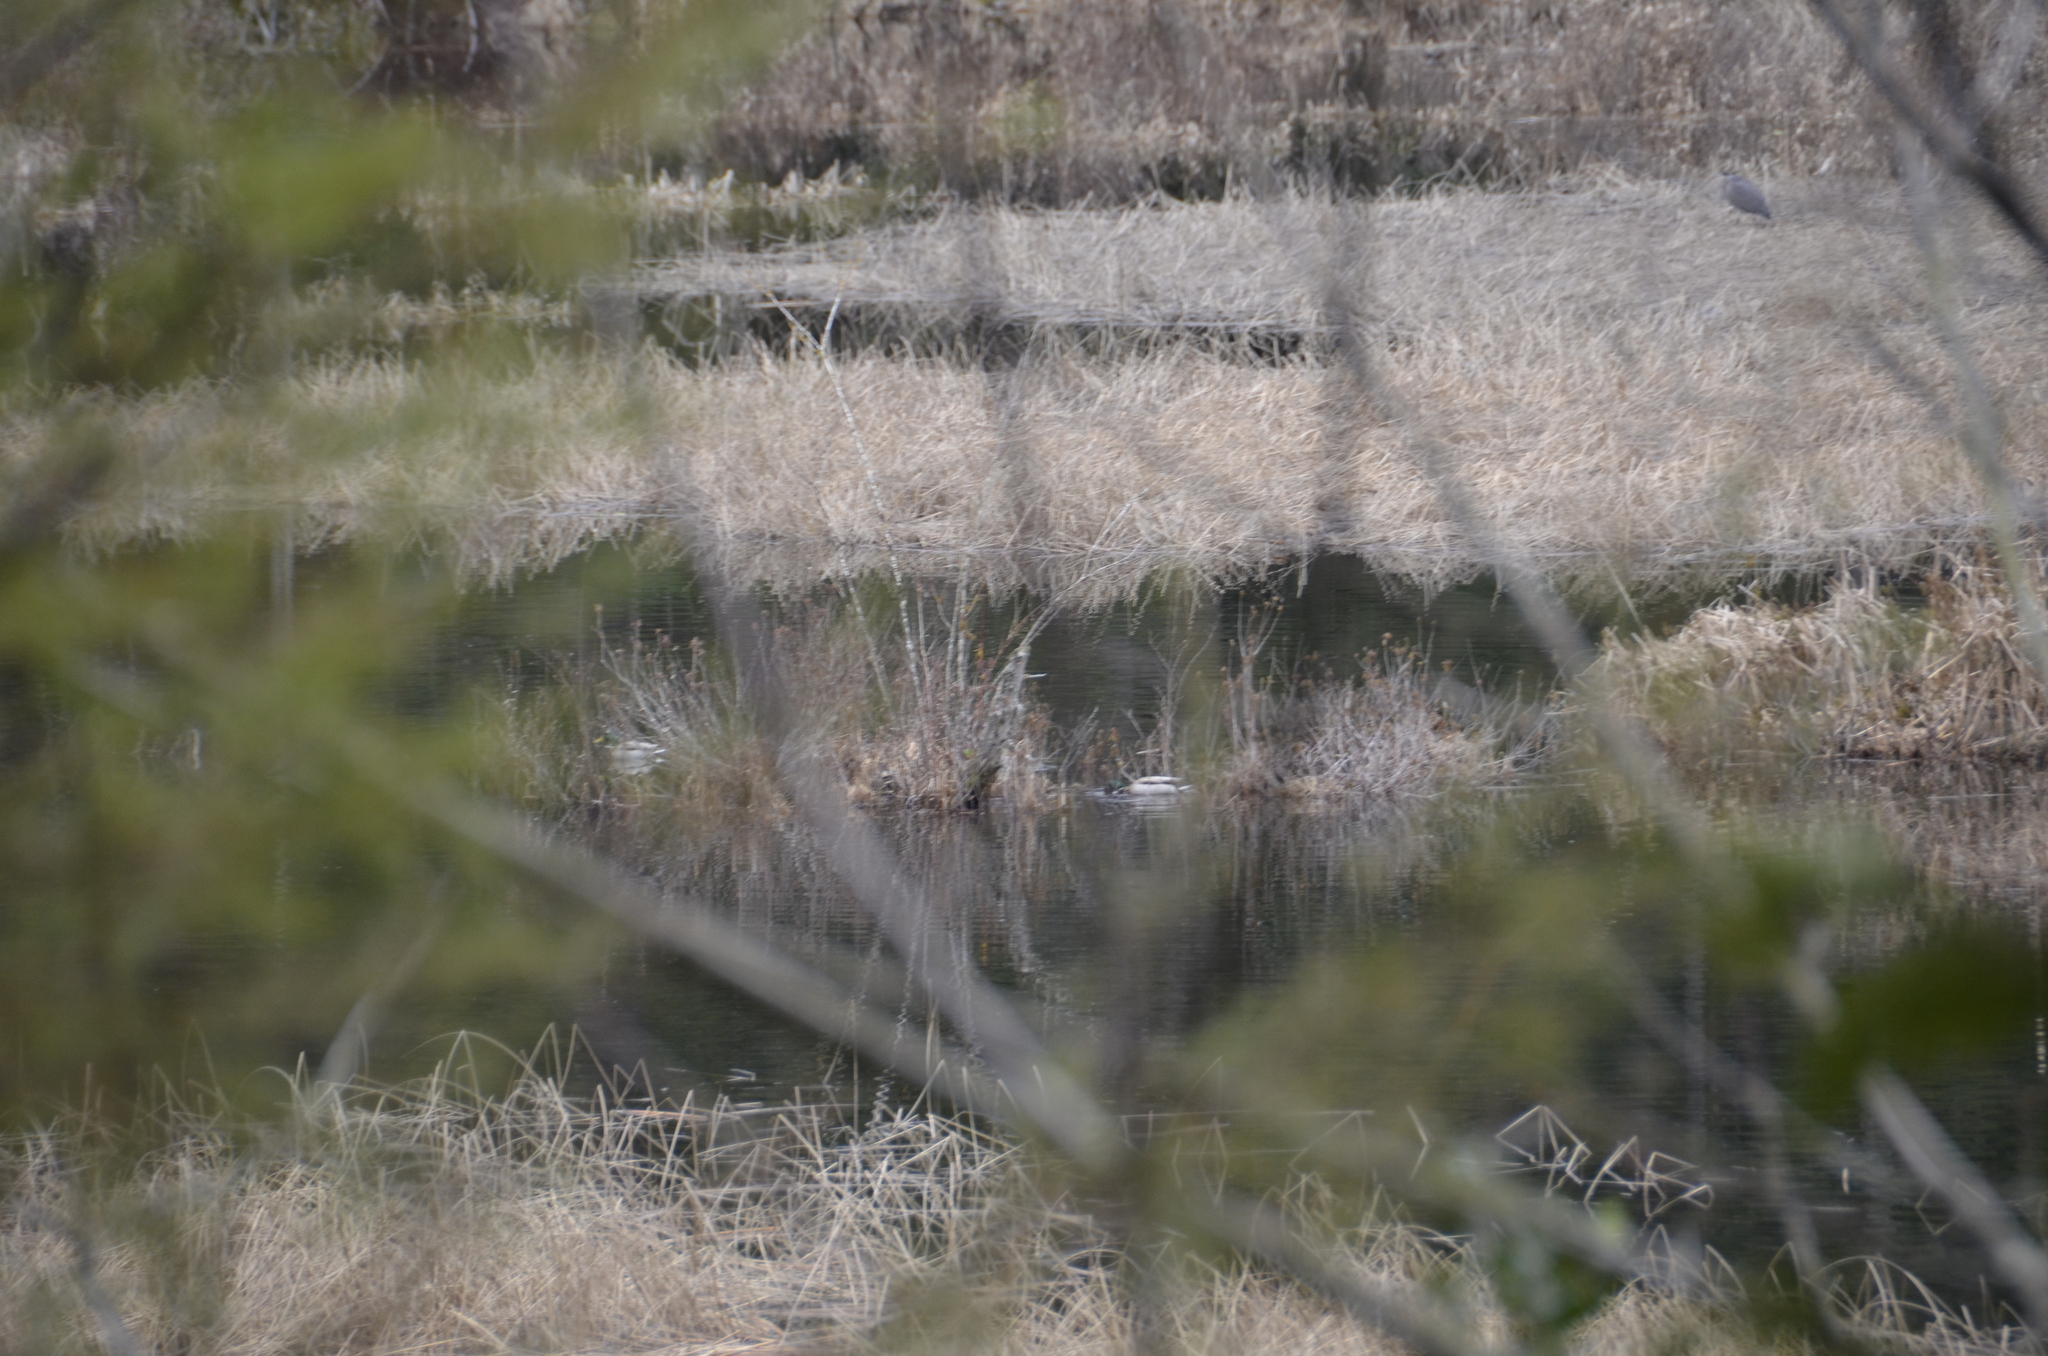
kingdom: Animalia
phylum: Chordata
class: Aves
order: Anseriformes
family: Anatidae
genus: Anas
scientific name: Anas platyrhynchos
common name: Mallard
